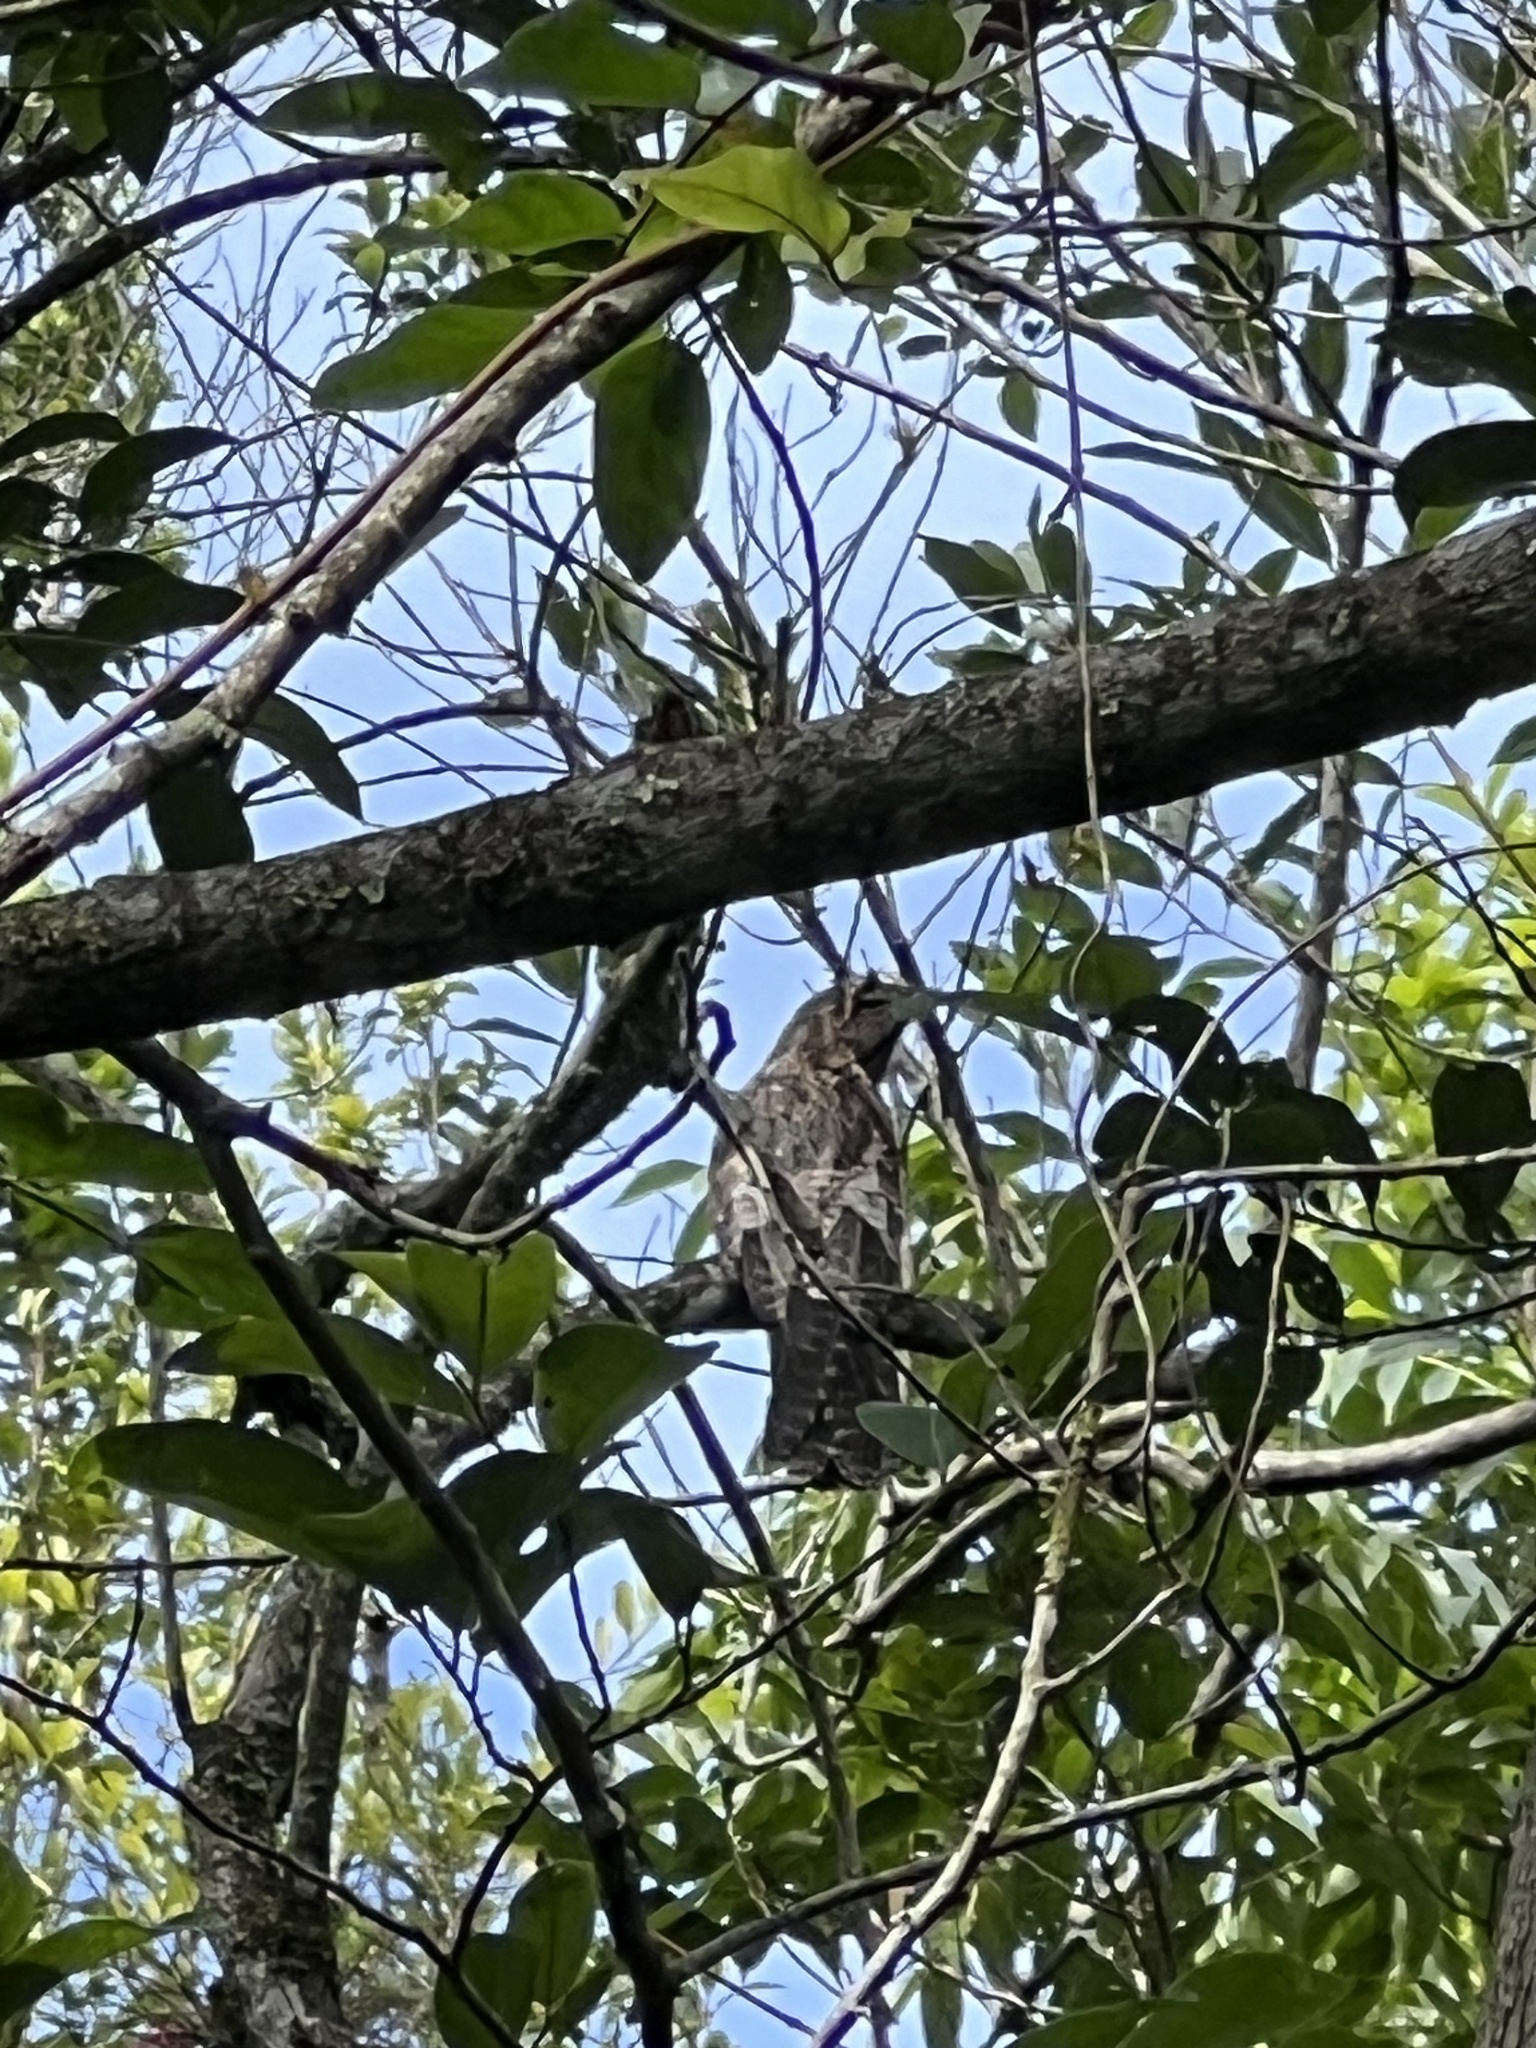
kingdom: Animalia
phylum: Chordata
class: Aves
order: Nyctibiiformes
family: Nyctibiidae
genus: Nyctibius
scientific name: Nyctibius griseus
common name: Common potoo
